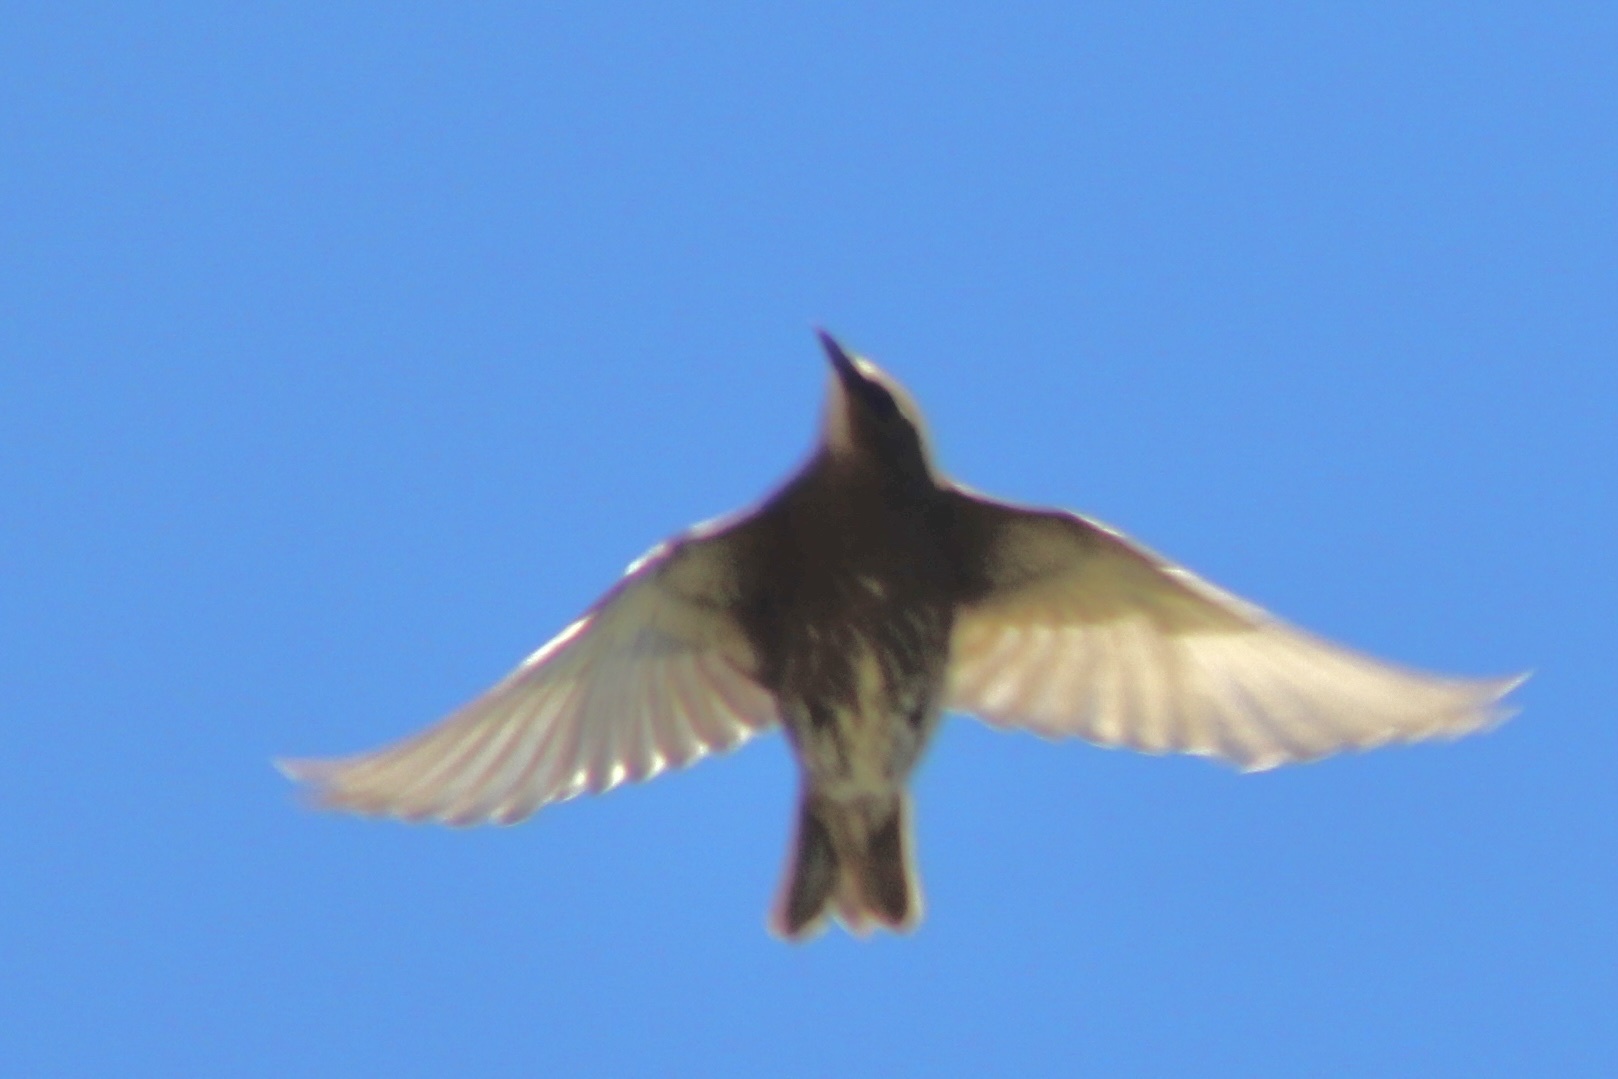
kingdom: Animalia
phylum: Chordata
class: Aves
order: Passeriformes
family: Sturnidae
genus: Sturnus
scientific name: Sturnus vulgaris
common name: Common starling
